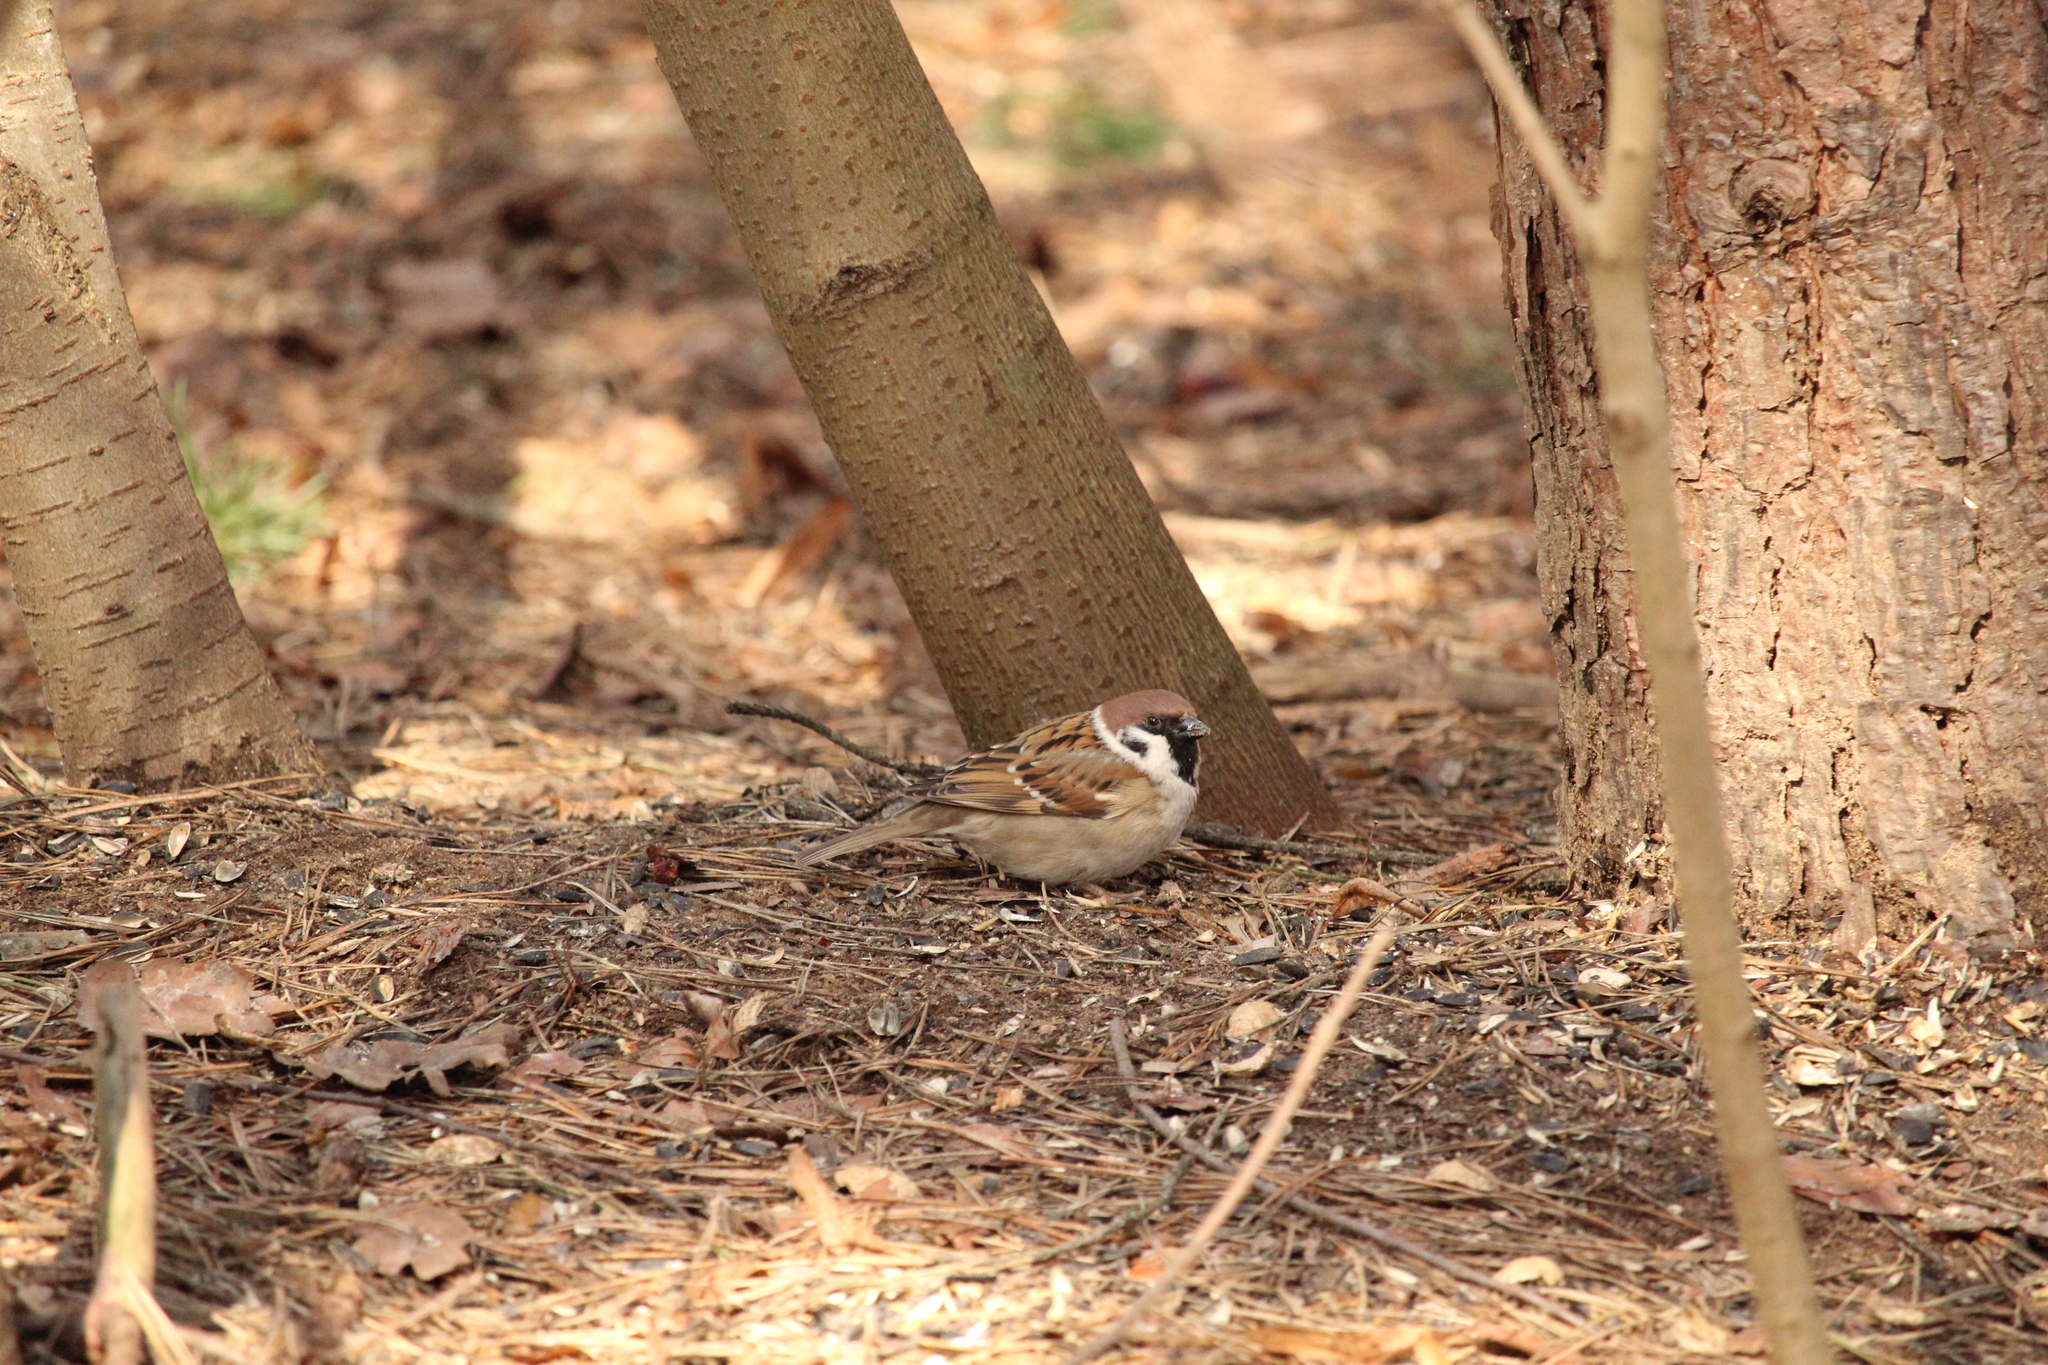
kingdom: Animalia
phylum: Chordata
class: Aves
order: Passeriformes
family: Passeridae
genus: Passer
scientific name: Passer montanus
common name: Eurasian tree sparrow
